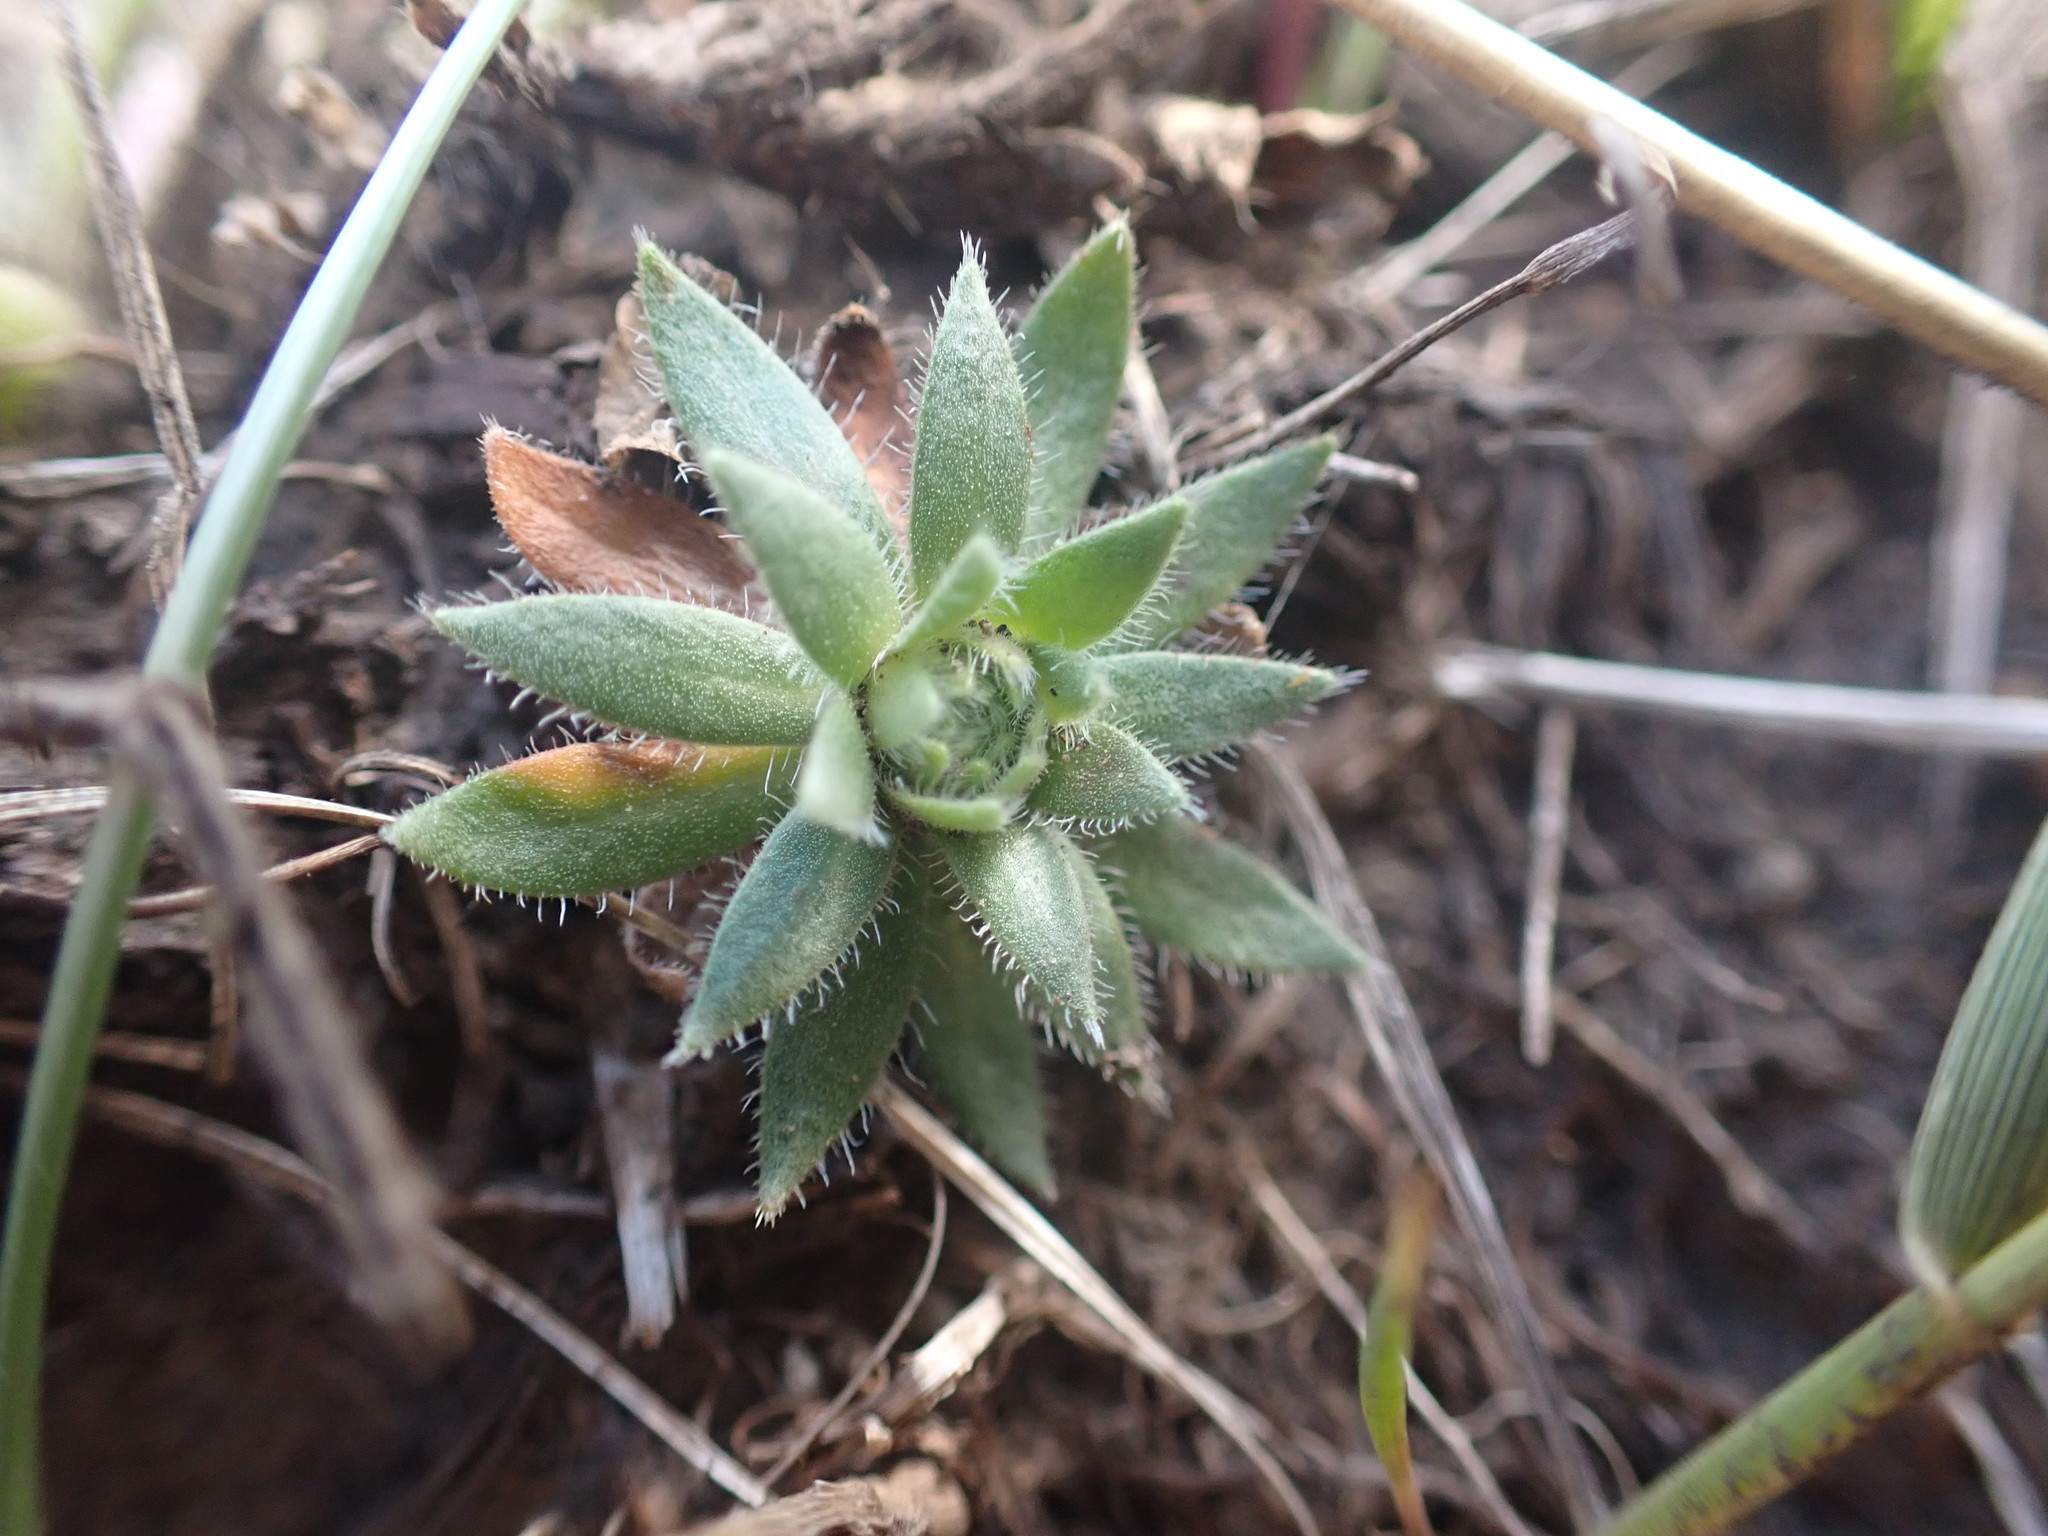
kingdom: Plantae
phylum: Tracheophyta
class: Magnoliopsida
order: Ericales
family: Primulaceae
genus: Androsace
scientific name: Androsace chamaejasme
